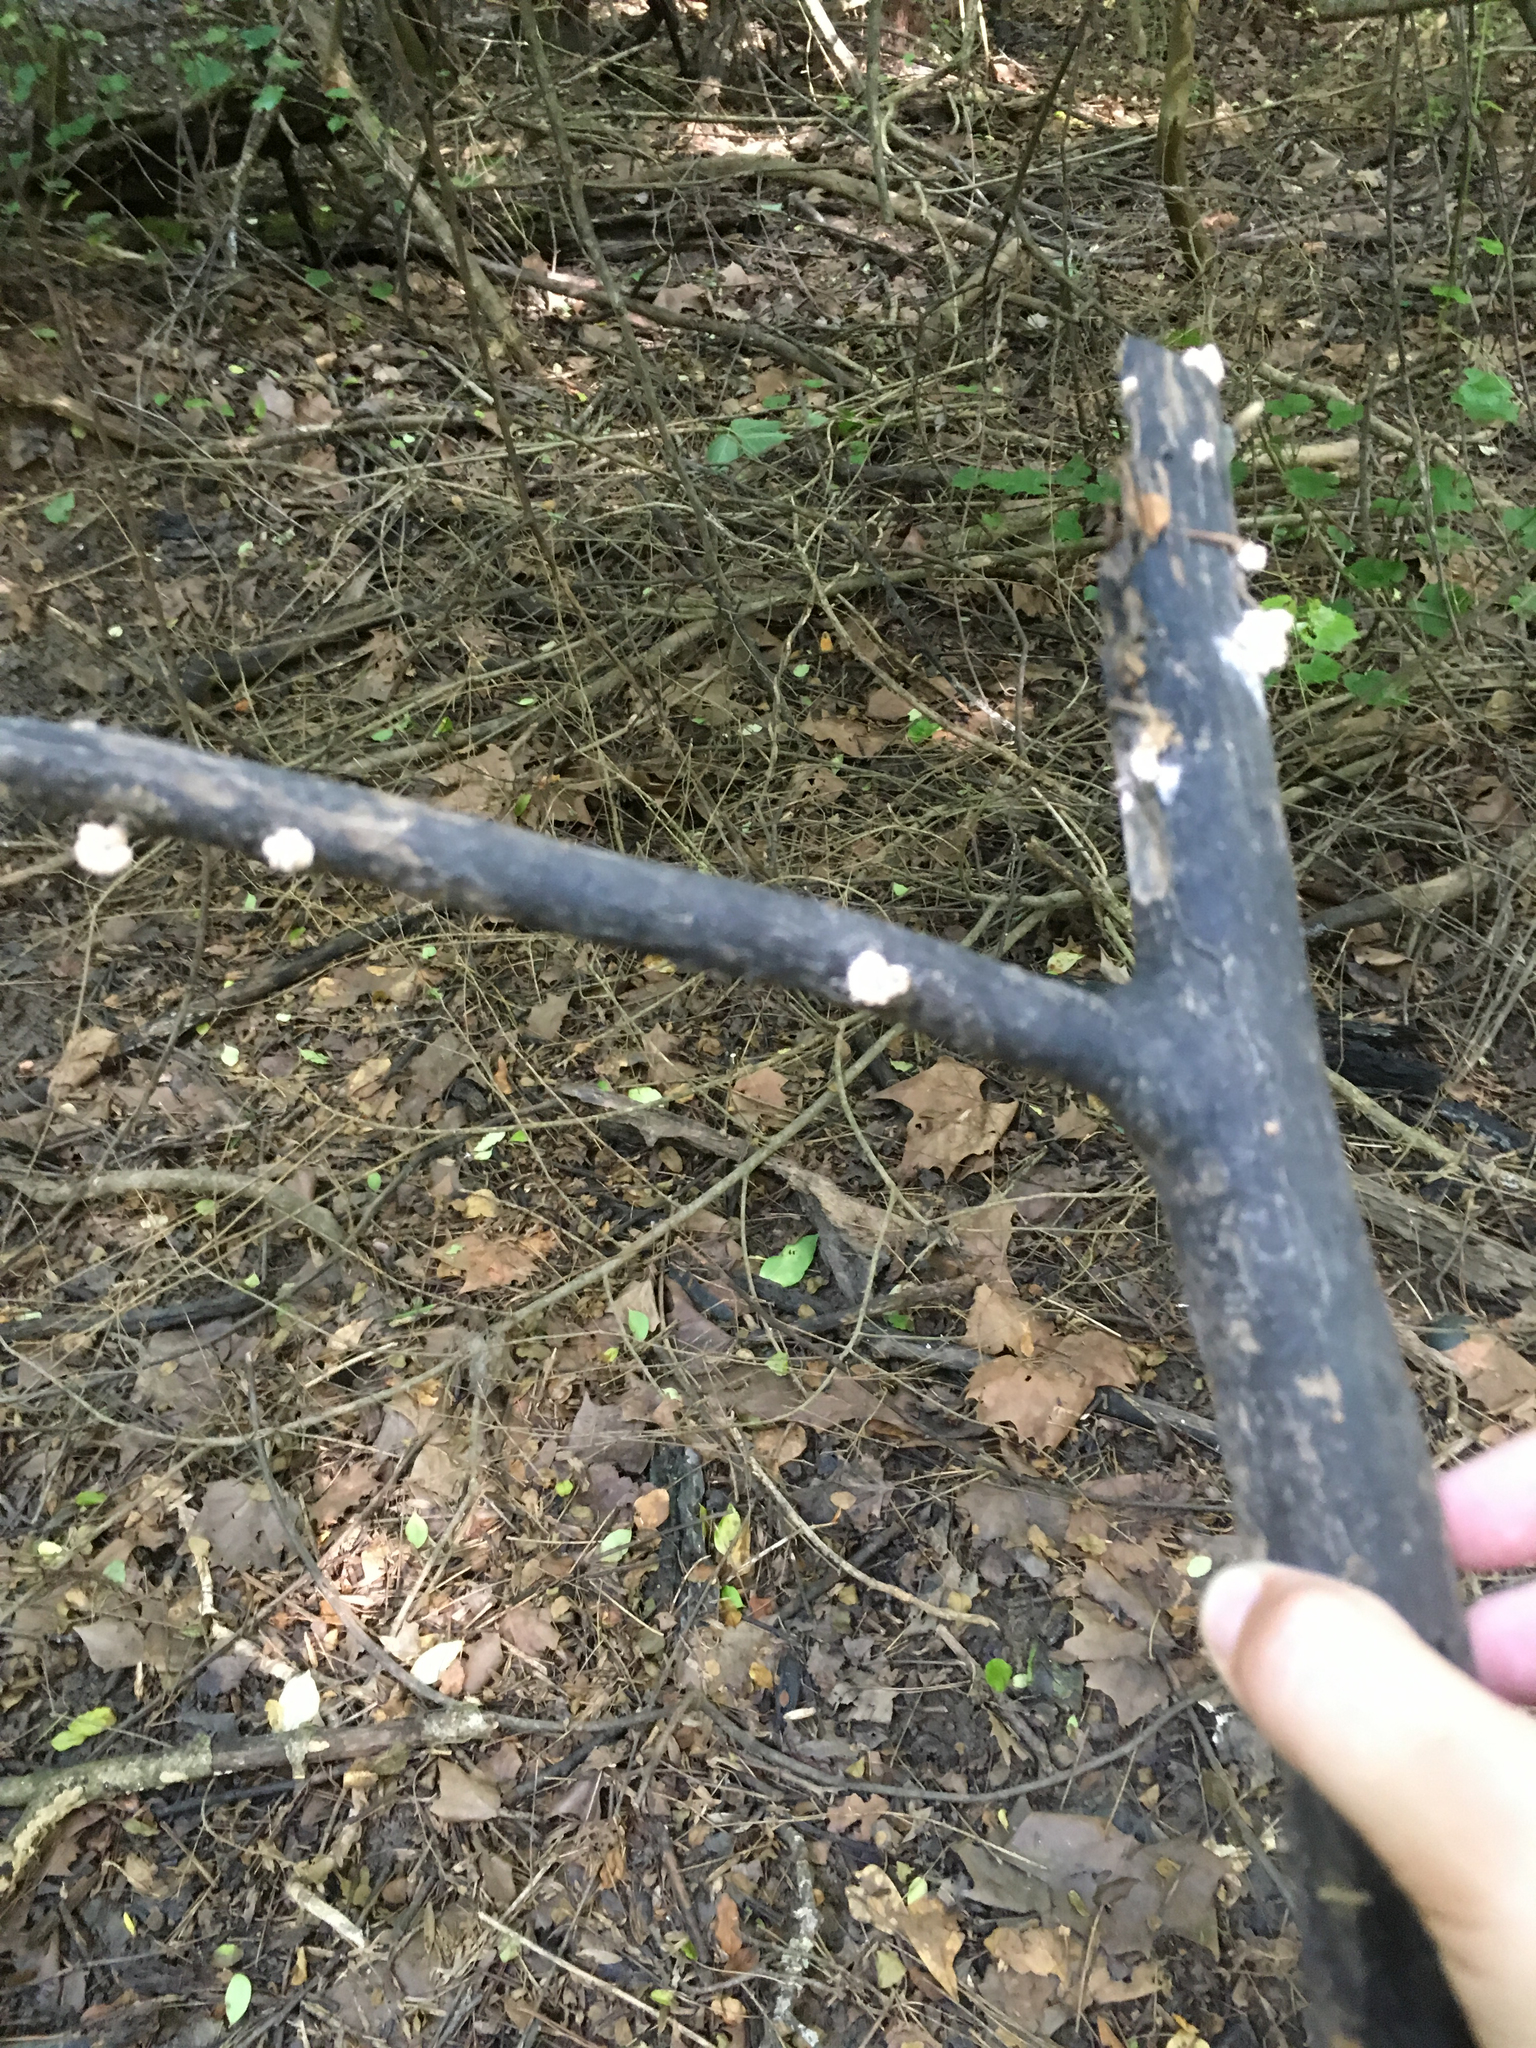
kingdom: Fungi
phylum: Ascomycota
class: Sordariomycetes
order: Xylariales
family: Xylariaceae
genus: Xylaria
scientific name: Xylaria cubensis
